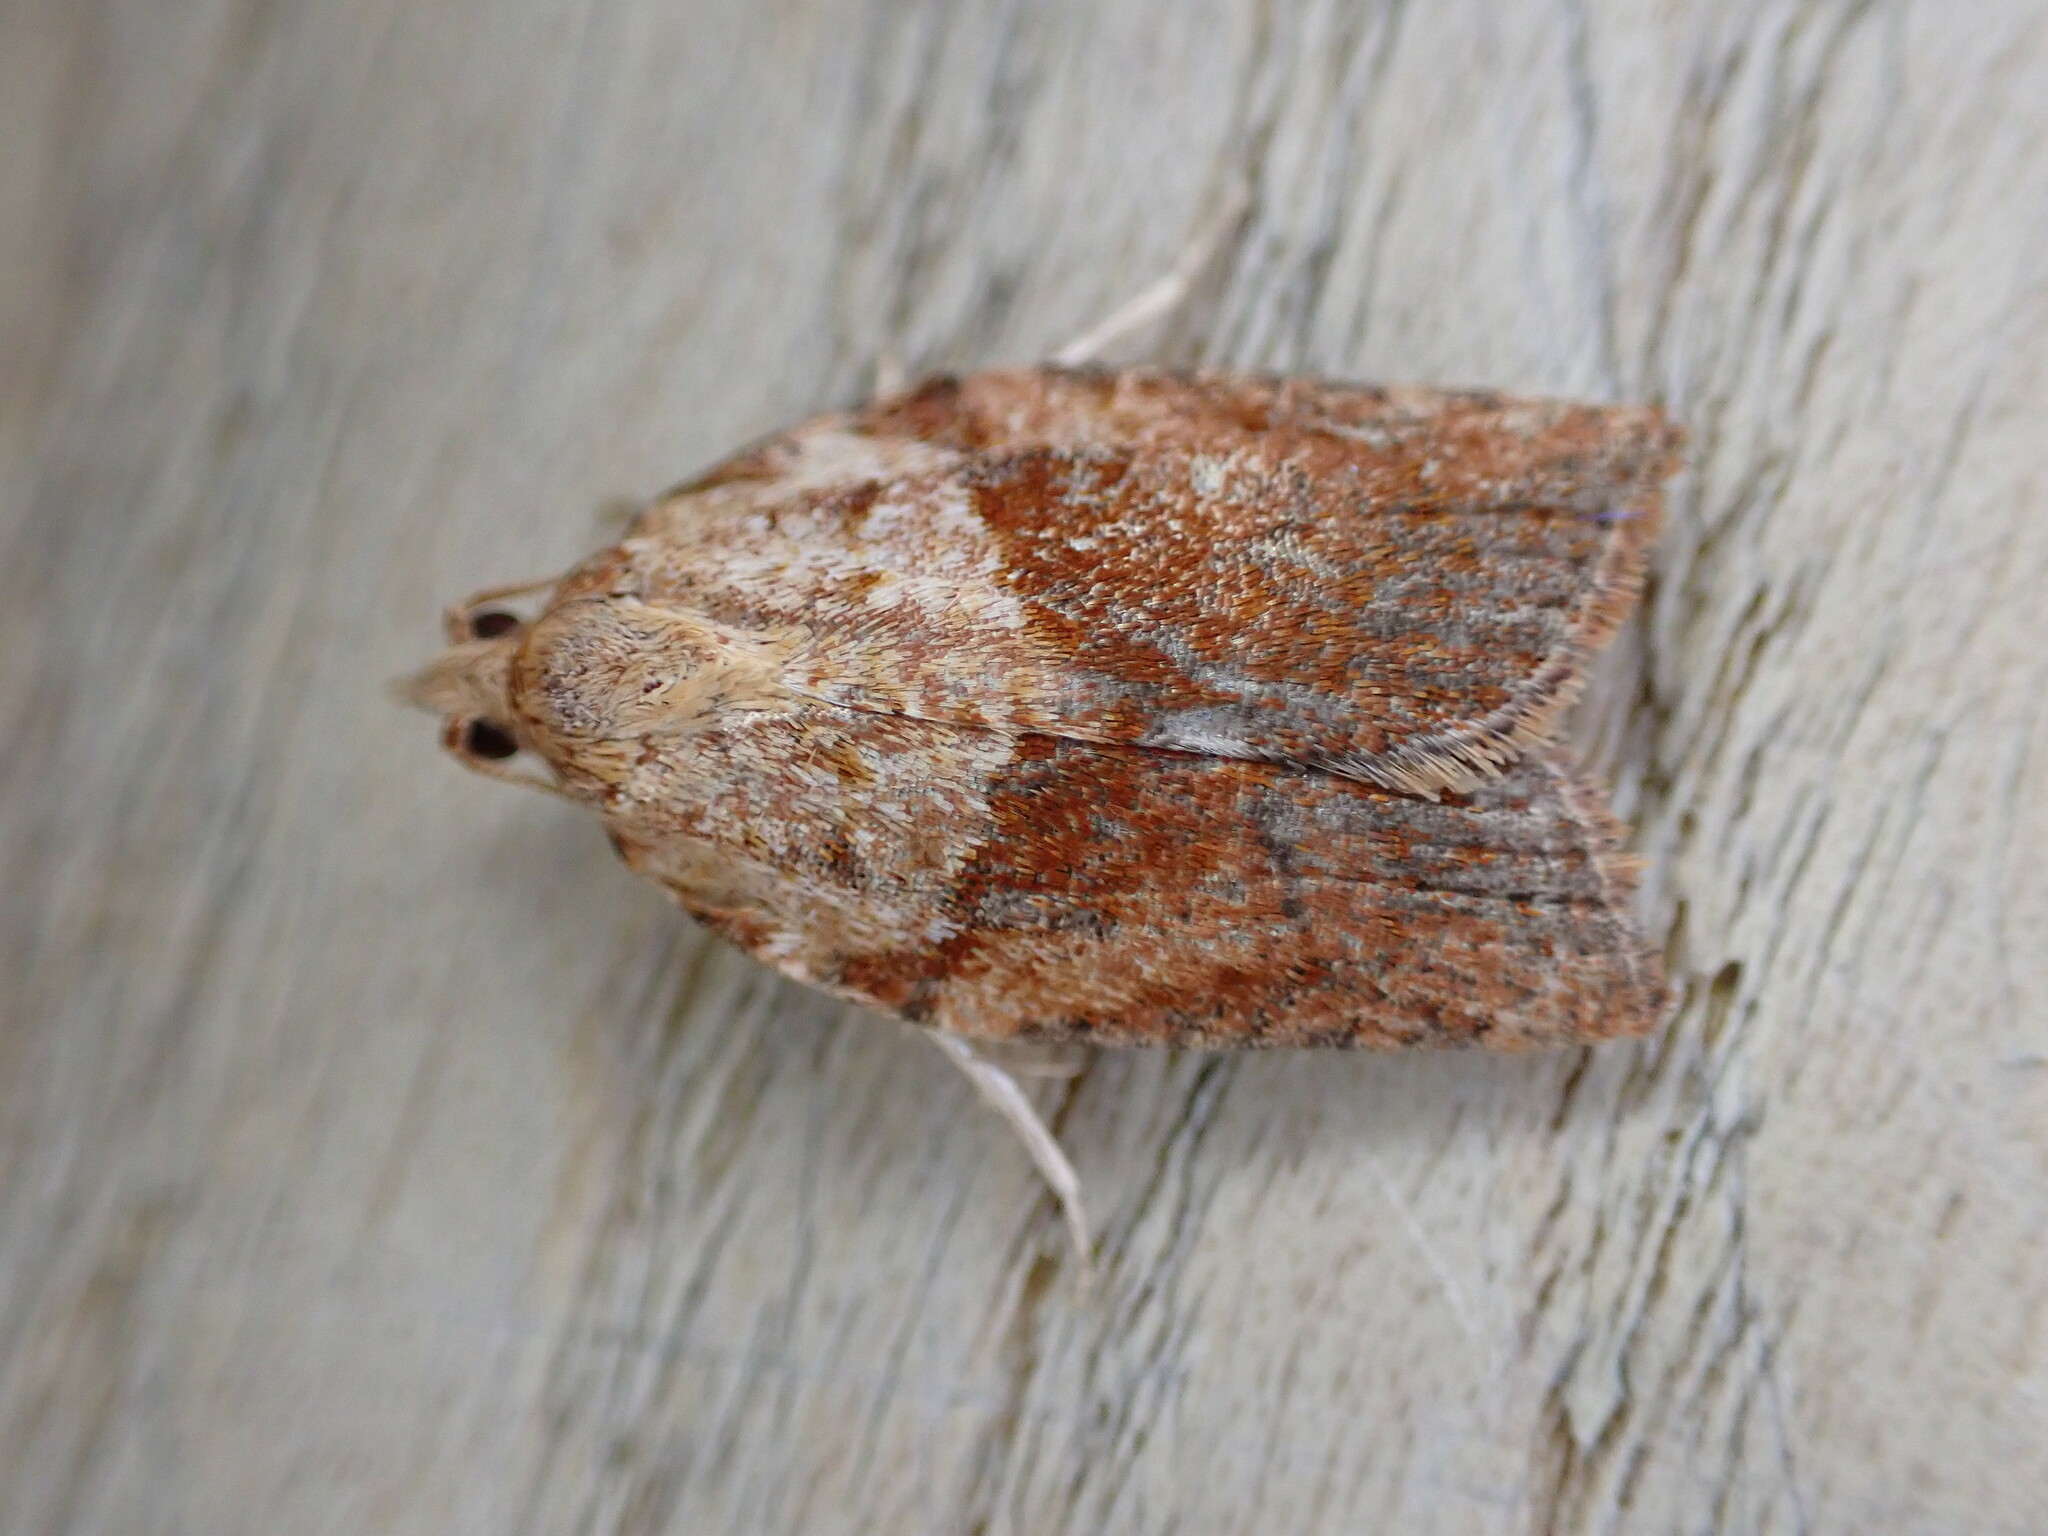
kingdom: Animalia
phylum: Arthropoda
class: Insecta
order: Lepidoptera
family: Tortricidae
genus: Epiphyas
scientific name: Epiphyas postvittana
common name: Light brown apple moth
